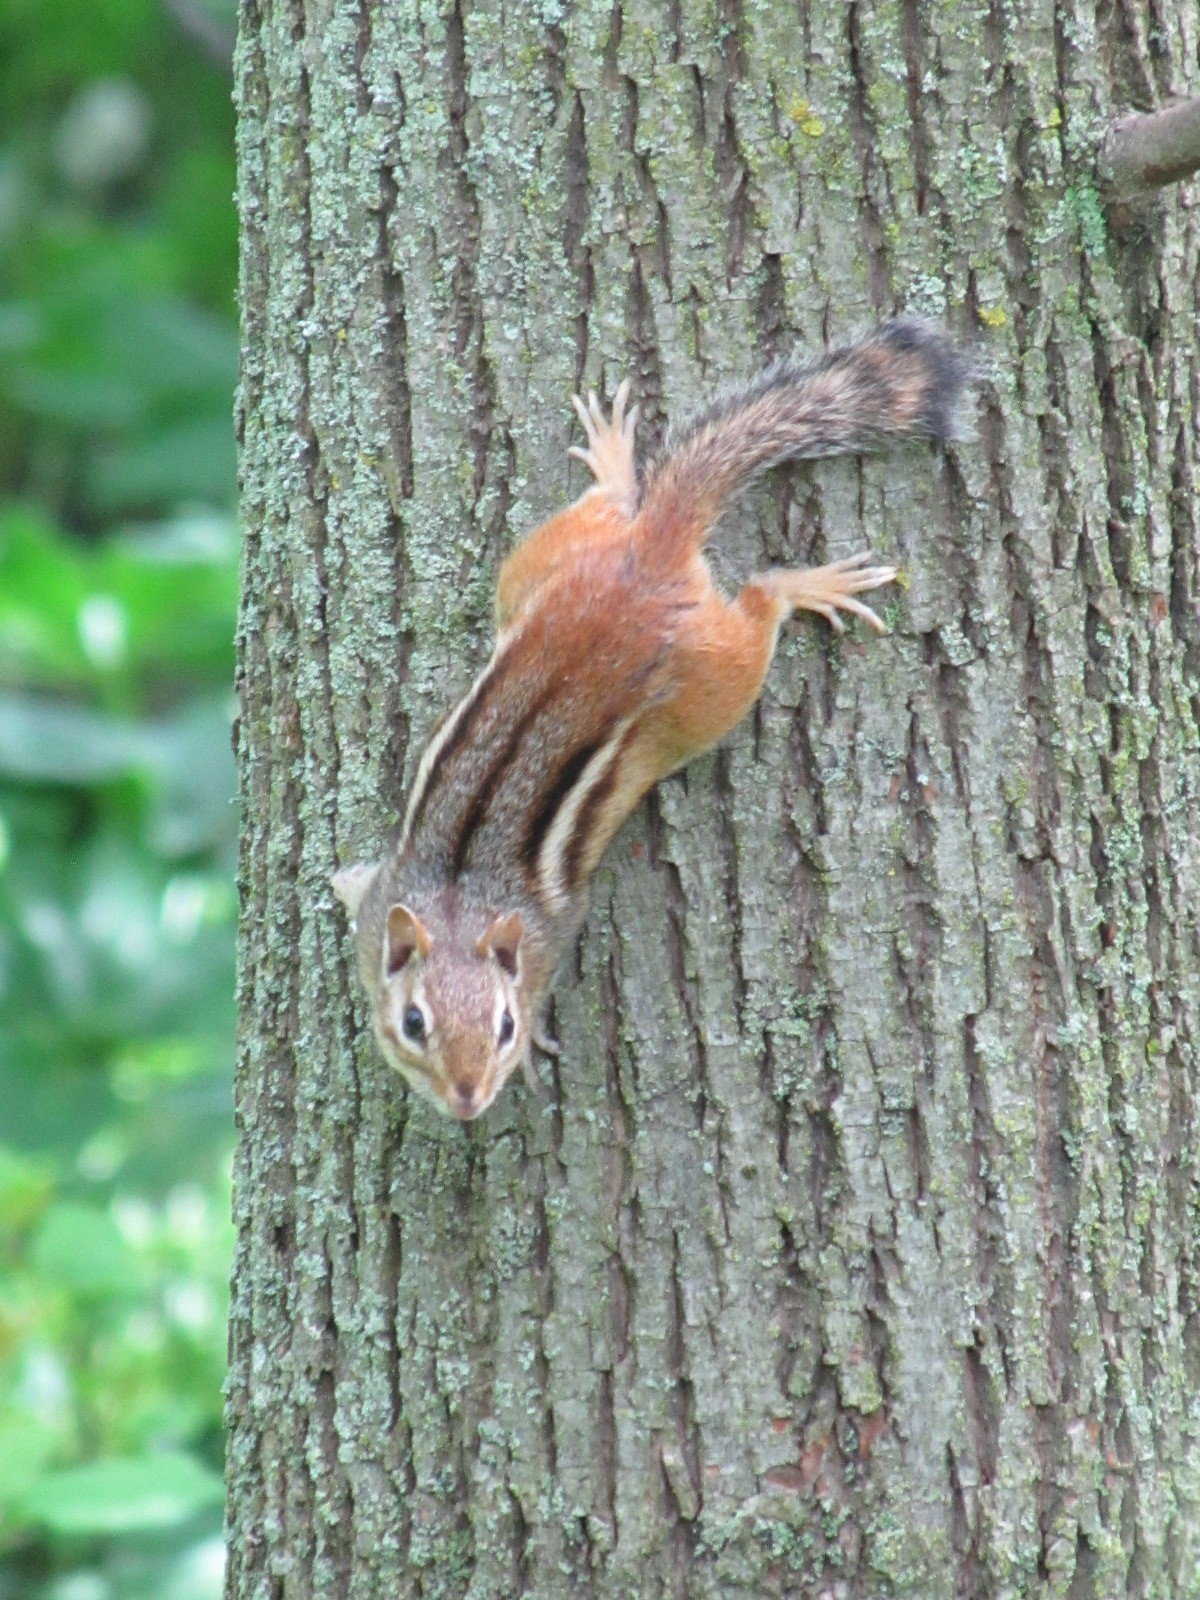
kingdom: Animalia
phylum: Chordata
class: Mammalia
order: Rodentia
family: Sciuridae
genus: Tamias
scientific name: Tamias striatus
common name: Eastern chipmunk
